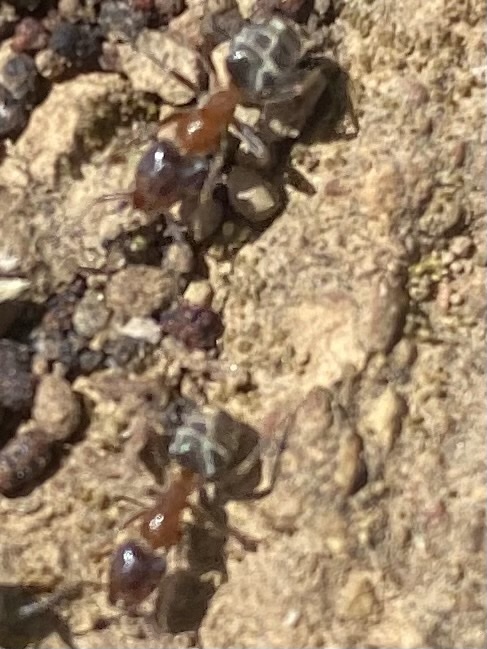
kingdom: Animalia
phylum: Arthropoda
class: Insecta
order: Hymenoptera
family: Formicidae
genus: Liometopum
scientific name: Liometopum occidentale
